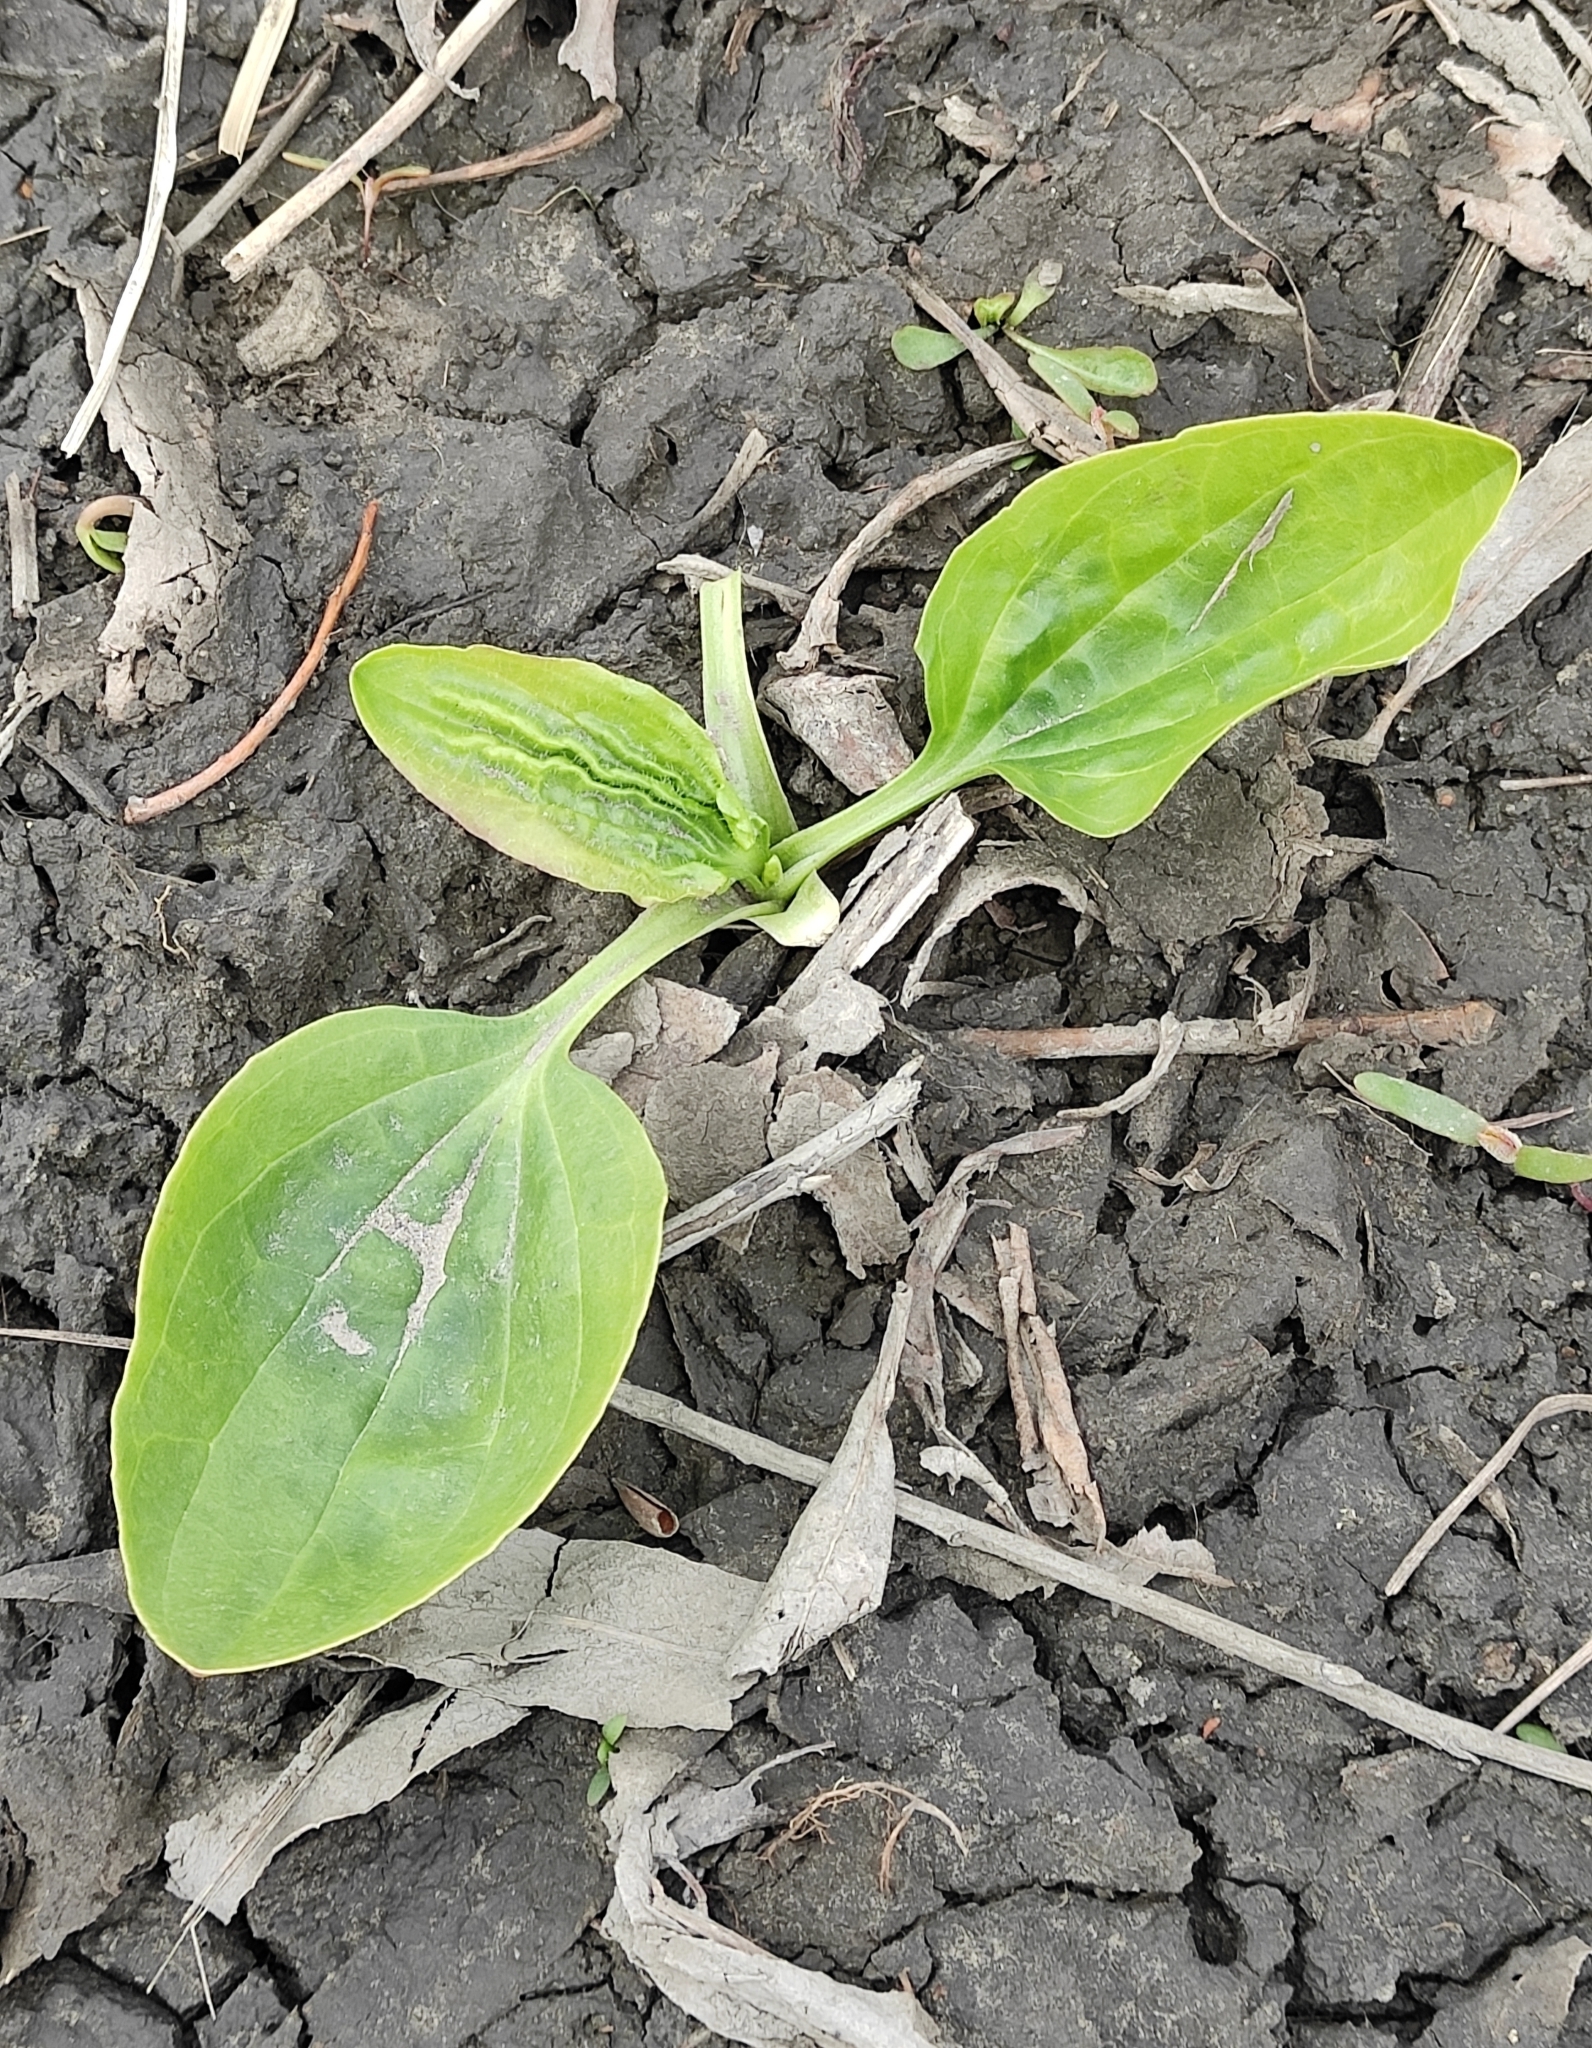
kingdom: Plantae
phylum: Tracheophyta
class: Magnoliopsida
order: Lamiales
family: Plantaginaceae
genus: Plantago
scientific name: Plantago major
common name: Common plantain
